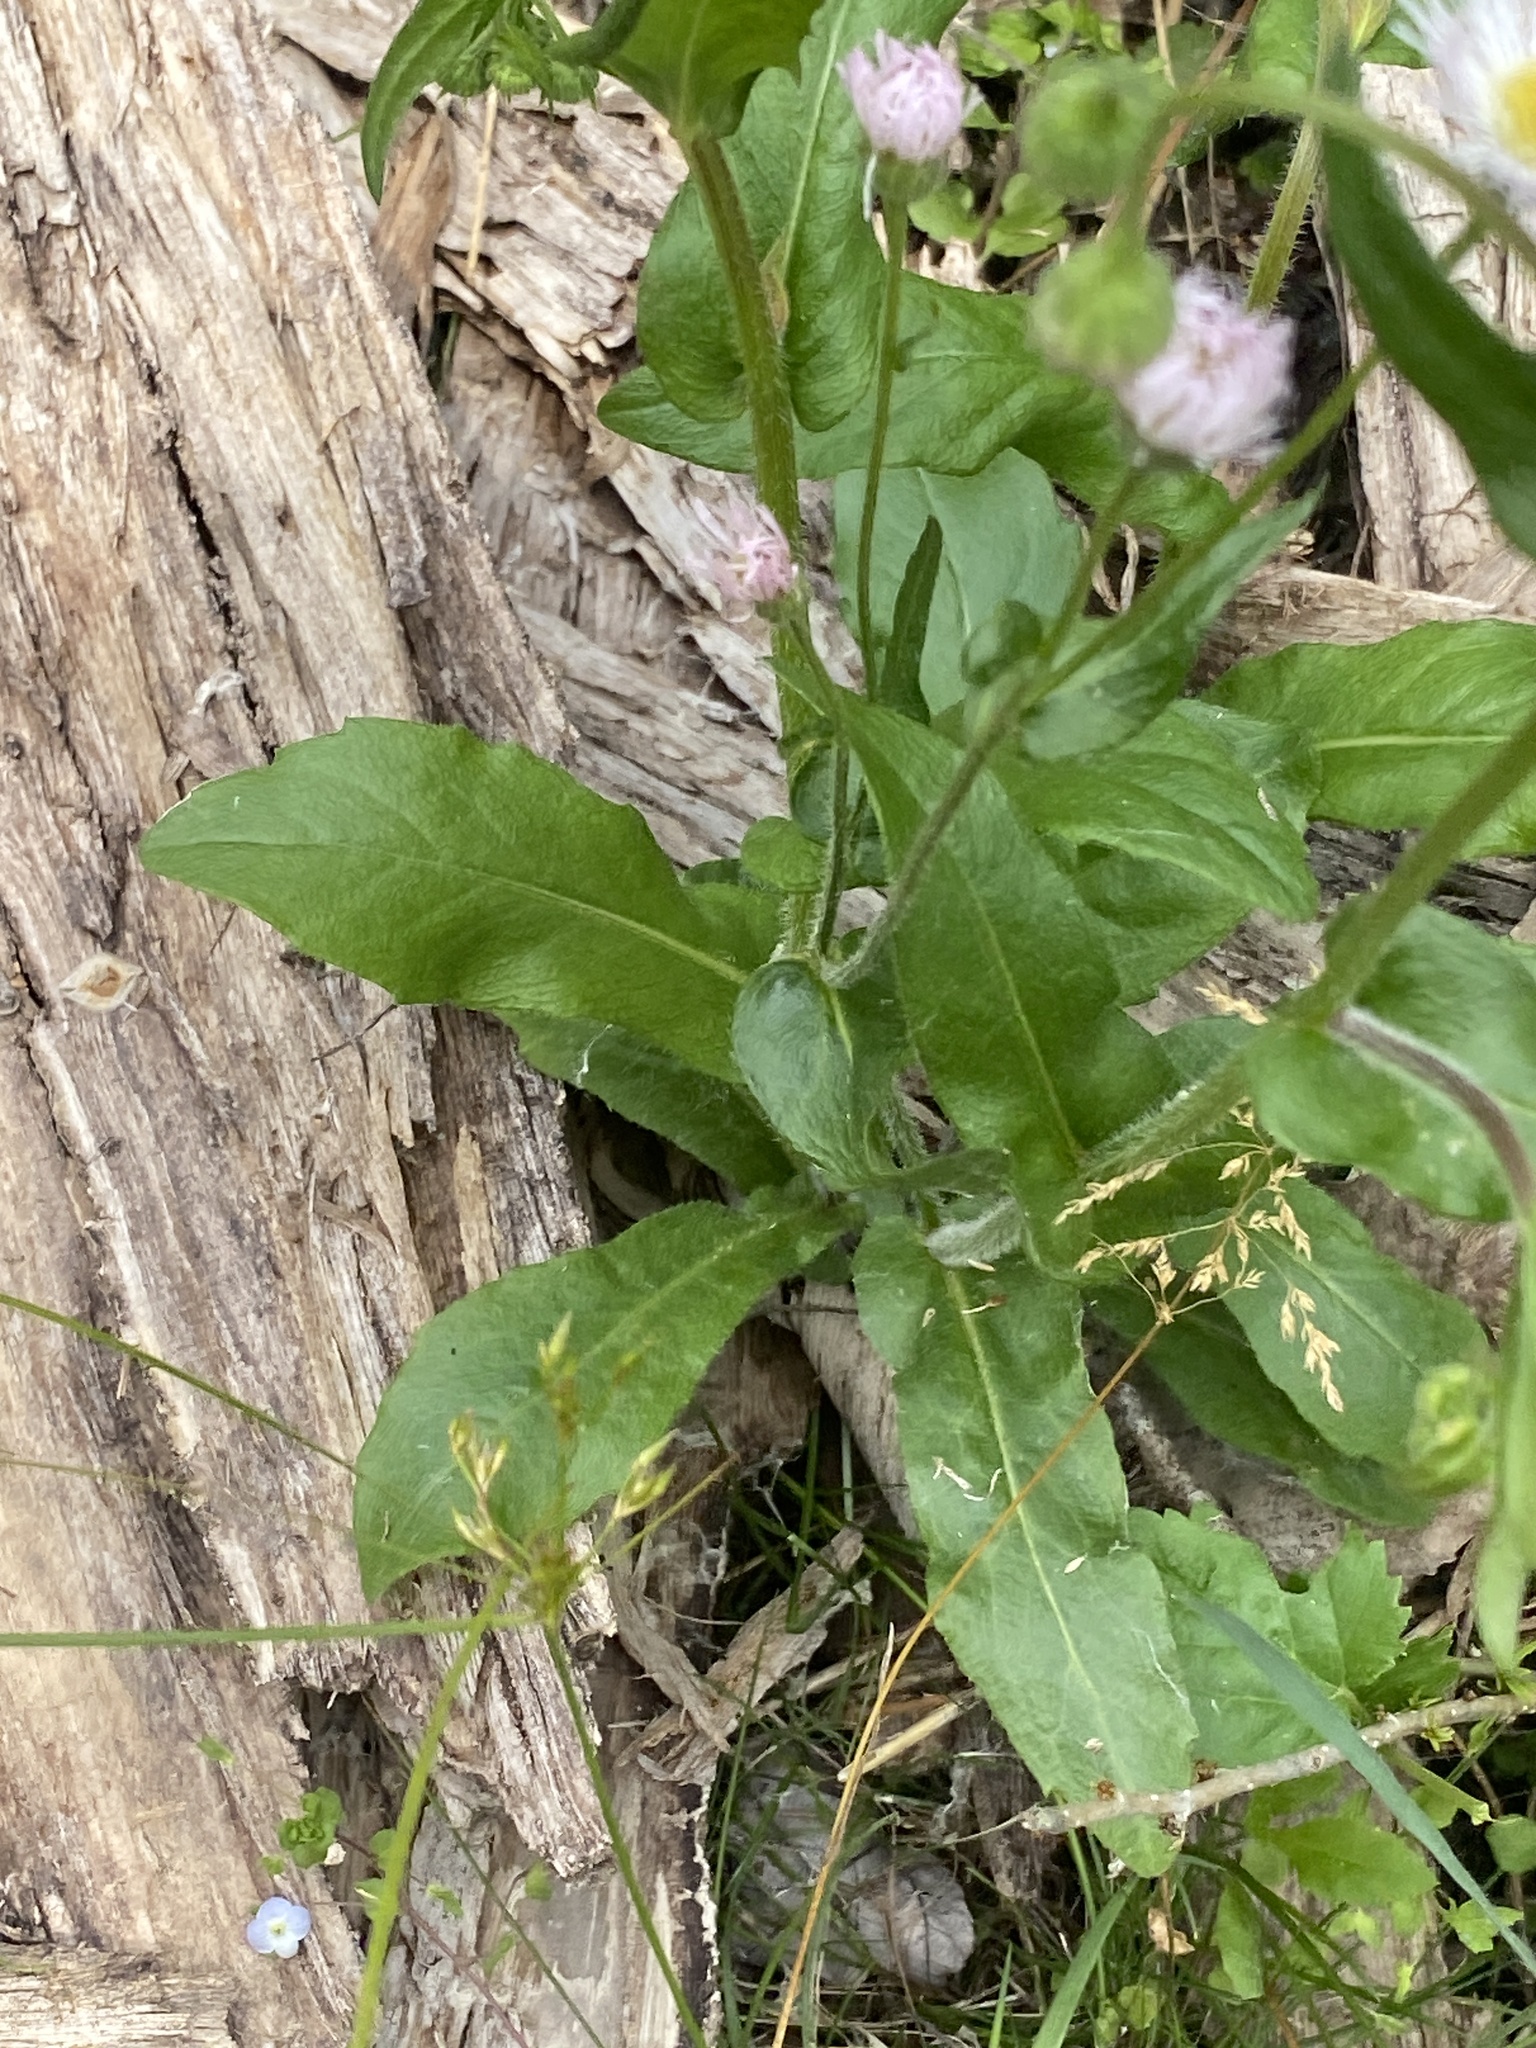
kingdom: Plantae
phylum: Tracheophyta
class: Magnoliopsida
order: Asterales
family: Asteraceae
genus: Erigeron
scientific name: Erigeron philadelphicus
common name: Robin's-plantain
